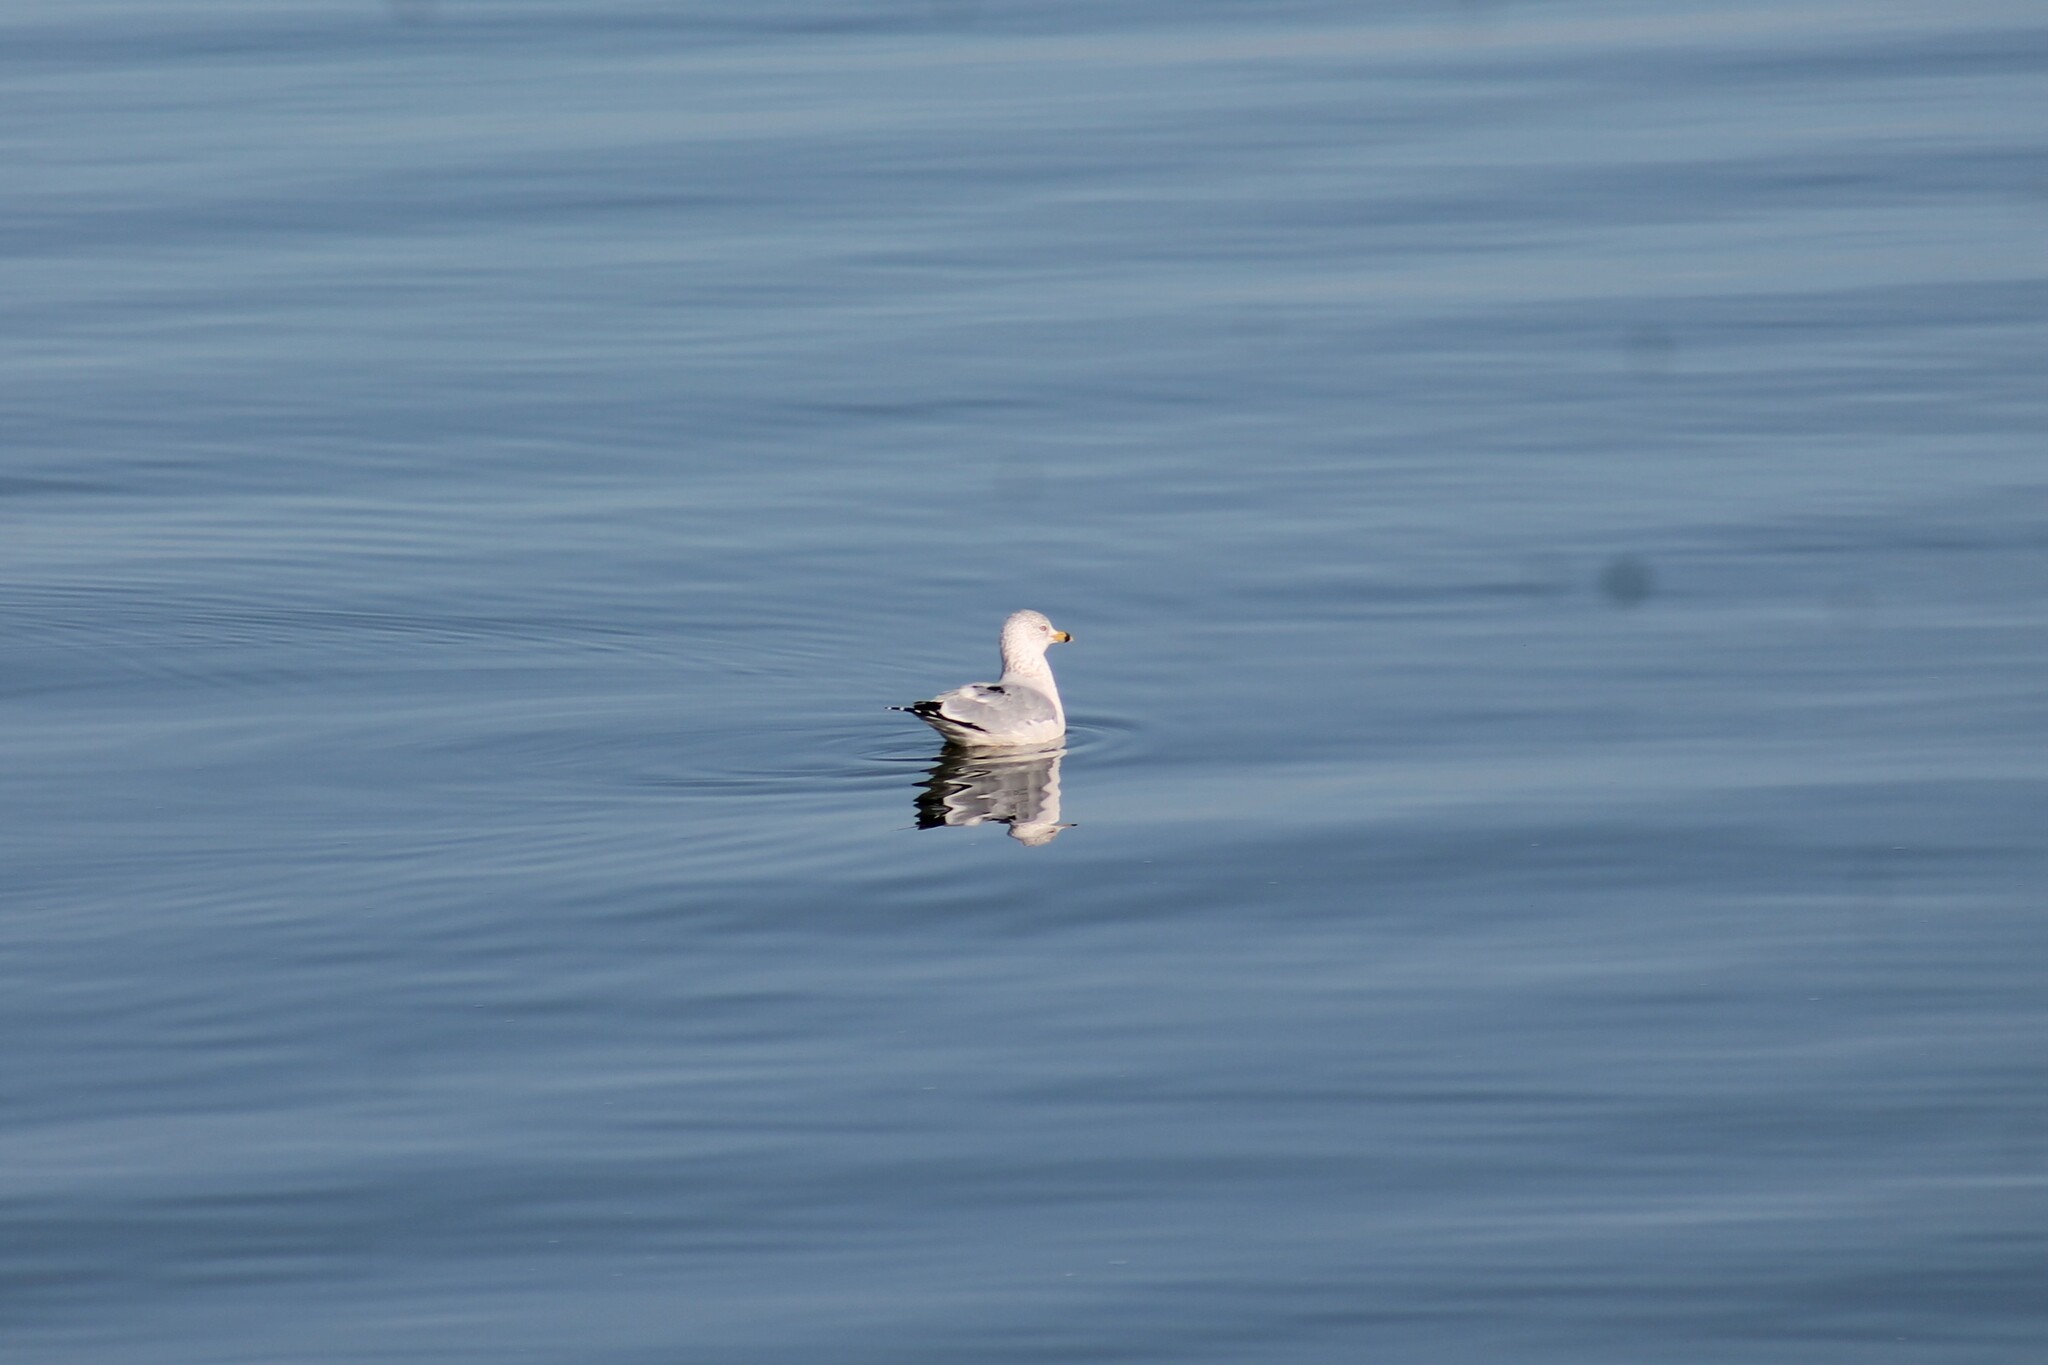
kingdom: Animalia
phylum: Chordata
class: Aves
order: Charadriiformes
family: Laridae
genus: Larus
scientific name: Larus delawarensis
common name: Ring-billed gull
